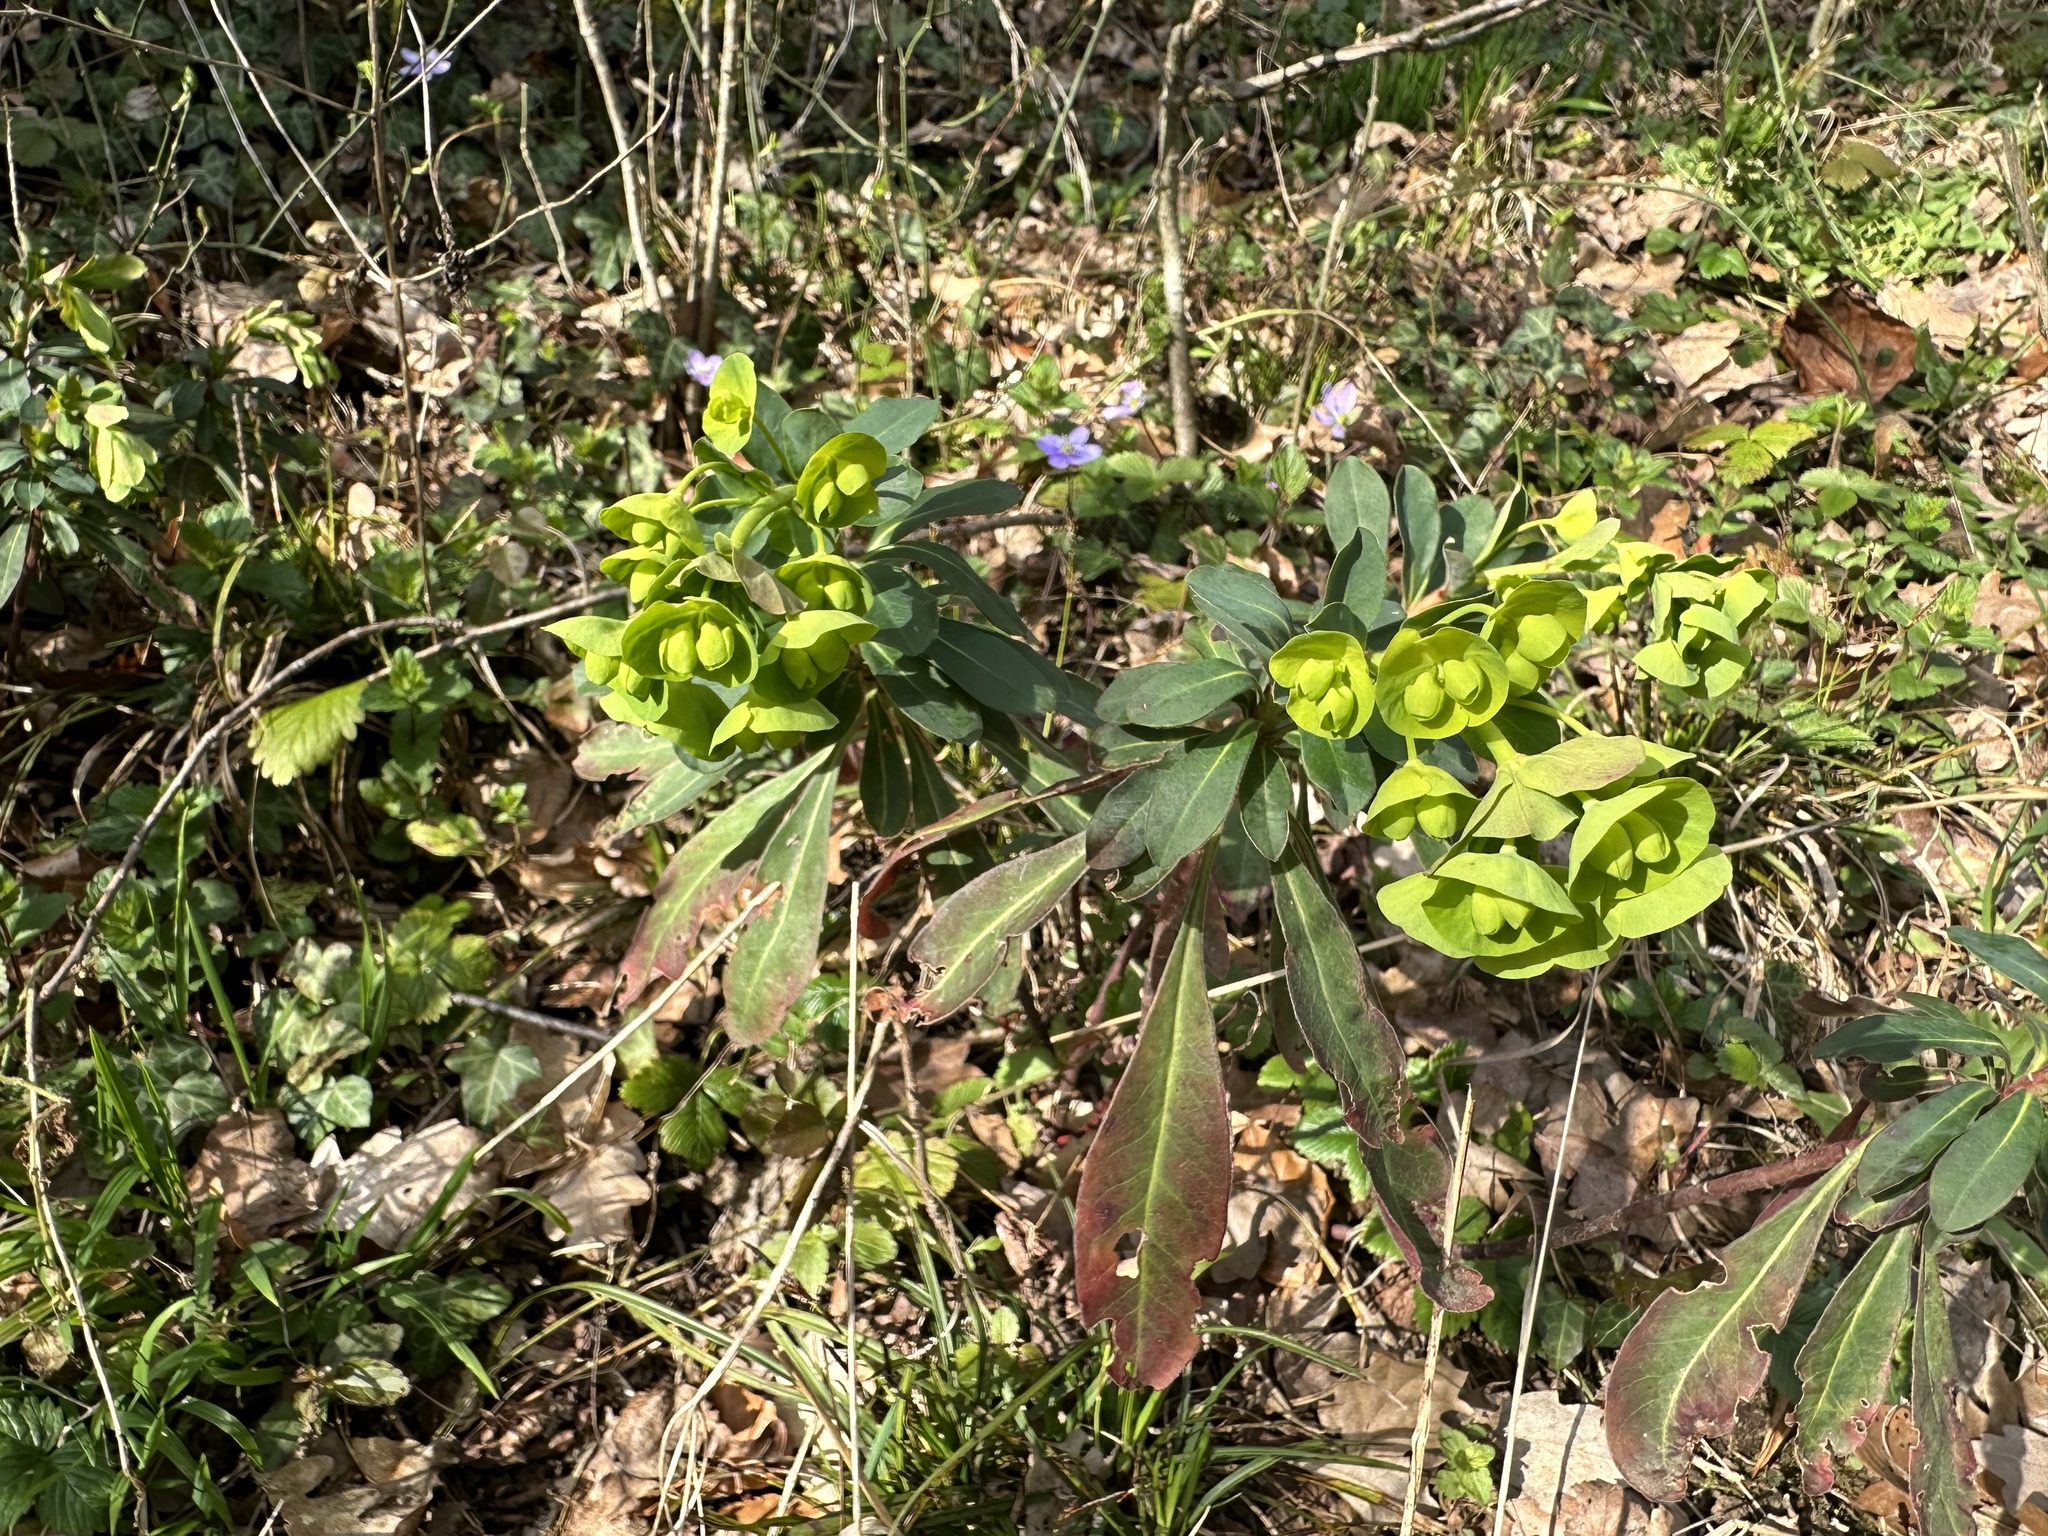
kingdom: Plantae
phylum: Tracheophyta
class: Magnoliopsida
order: Malpighiales
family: Euphorbiaceae
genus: Euphorbia
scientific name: Euphorbia amygdaloides
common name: Wood spurge
